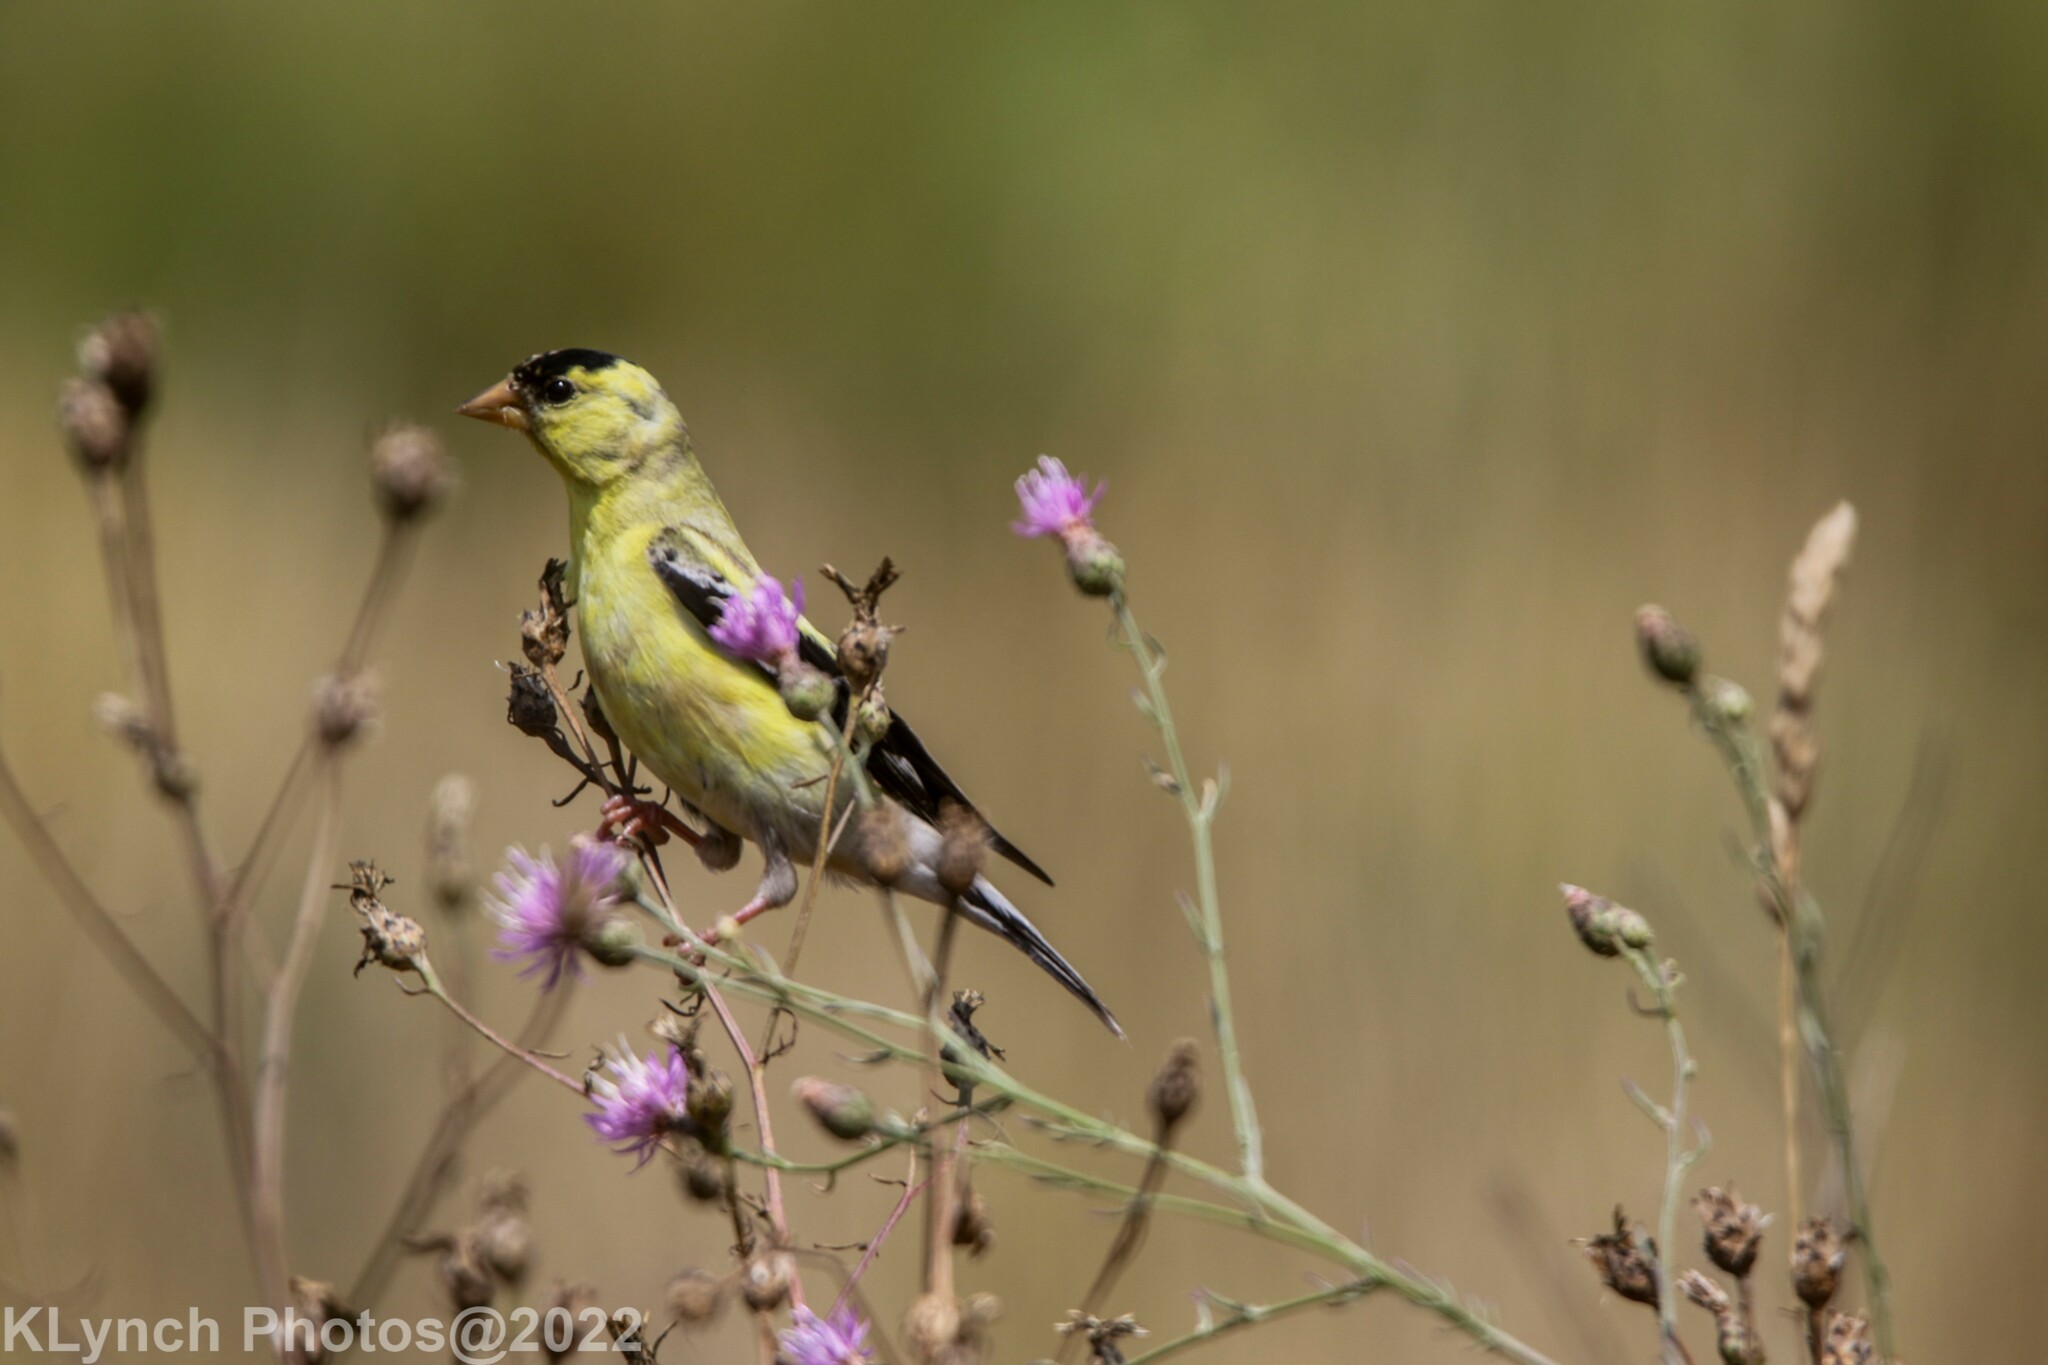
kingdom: Animalia
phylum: Chordata
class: Aves
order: Passeriformes
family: Fringillidae
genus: Spinus
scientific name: Spinus tristis
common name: American goldfinch
